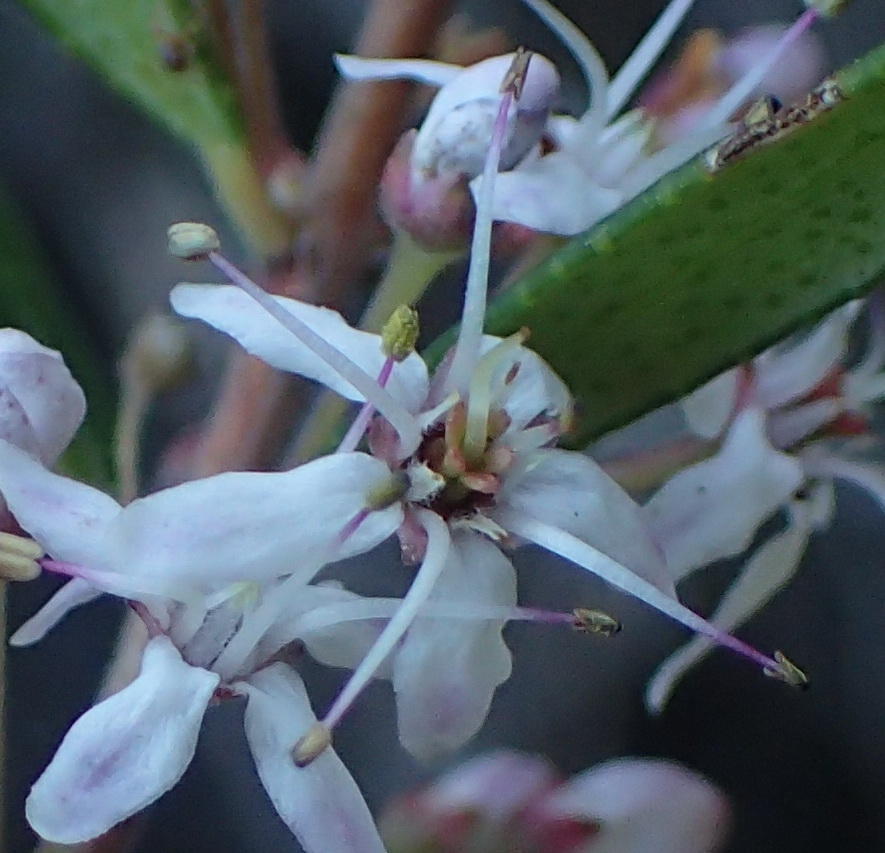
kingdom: Plantae
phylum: Tracheophyta
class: Magnoliopsida
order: Sapindales
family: Rutaceae
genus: Agathosma
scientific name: Agathosma ovata
